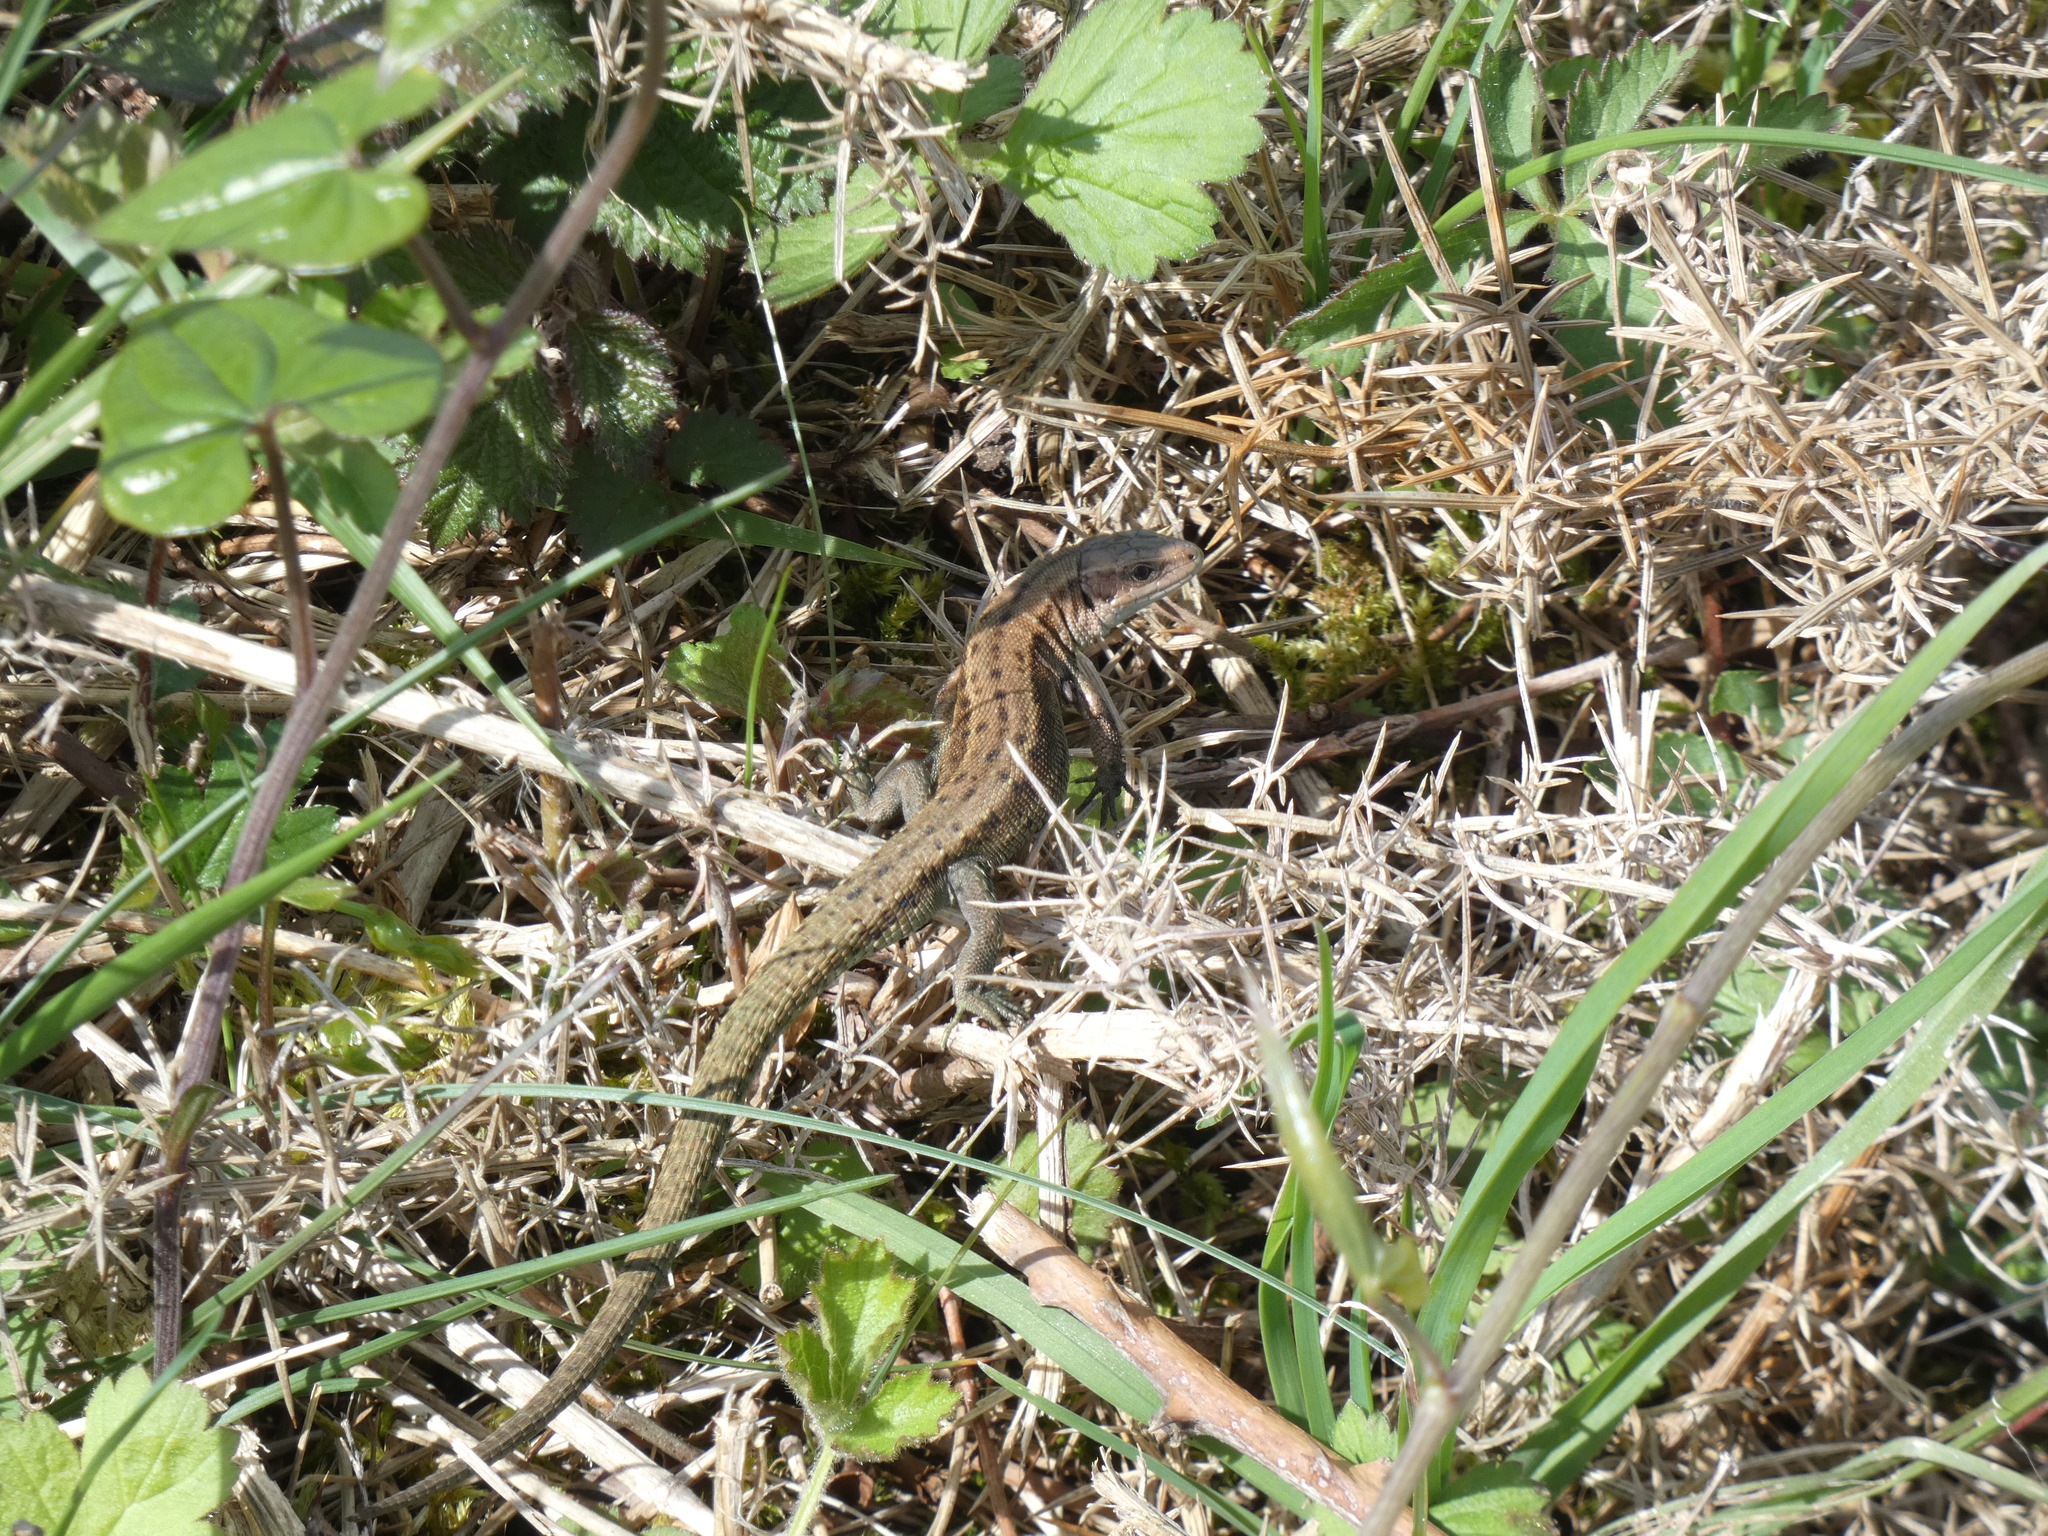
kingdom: Animalia
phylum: Chordata
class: Squamata
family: Lacertidae
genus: Zootoca
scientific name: Zootoca vivipara
